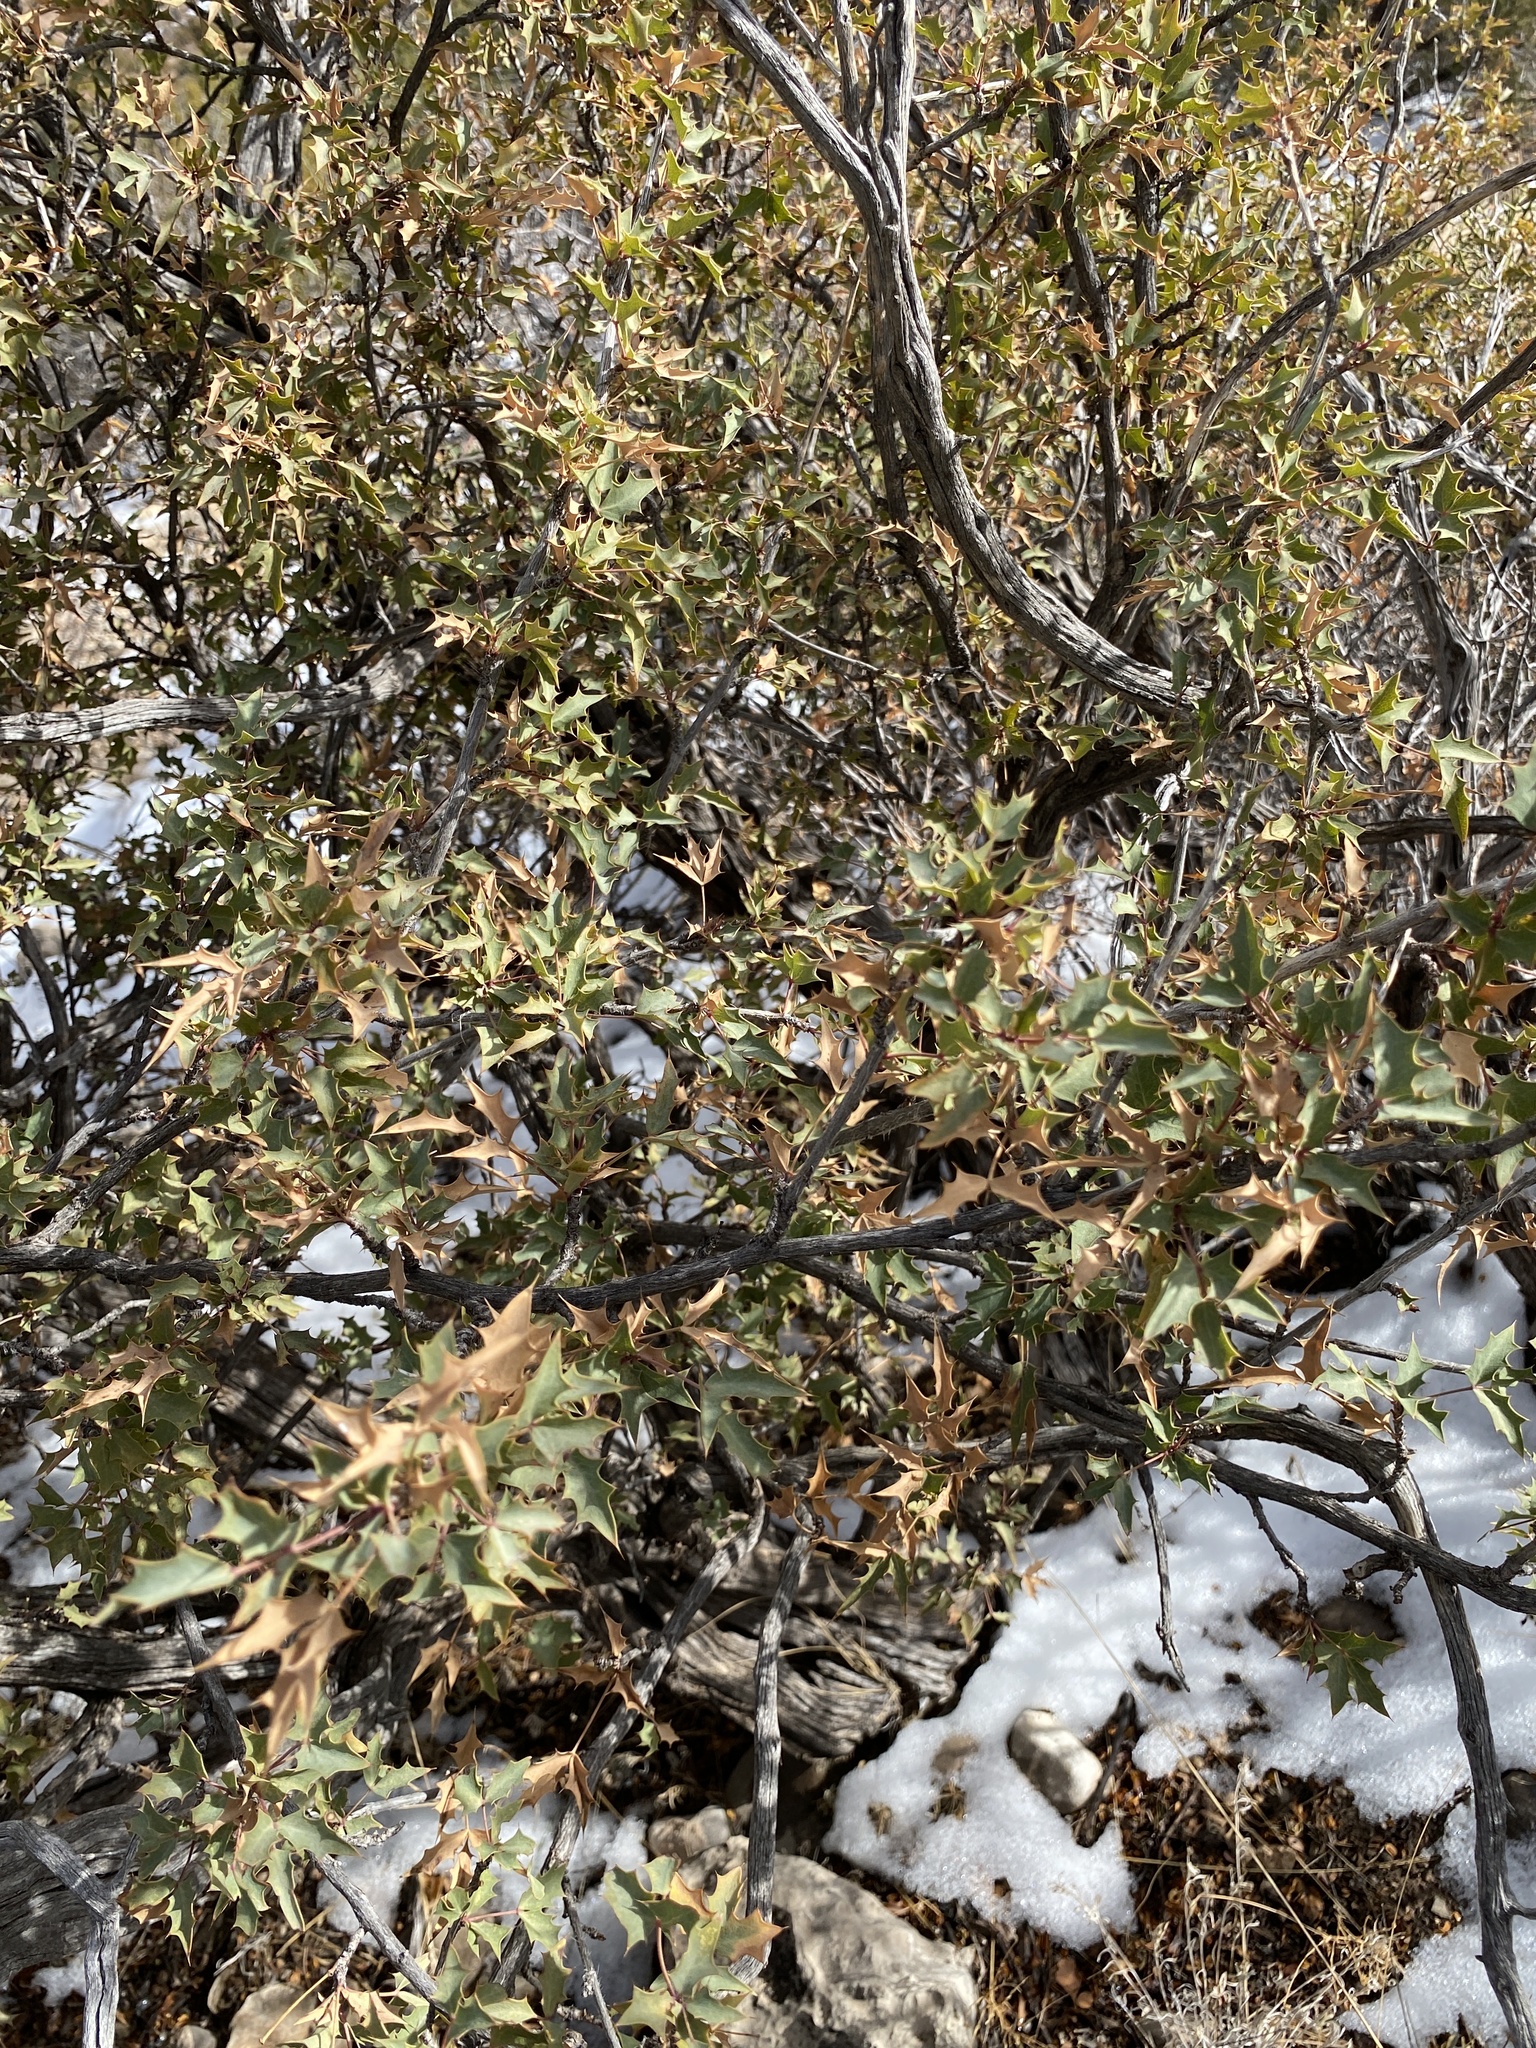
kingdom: Plantae
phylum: Tracheophyta
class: Magnoliopsida
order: Ranunculales
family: Berberidaceae
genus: Alloberberis
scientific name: Alloberberis haematocarpa
